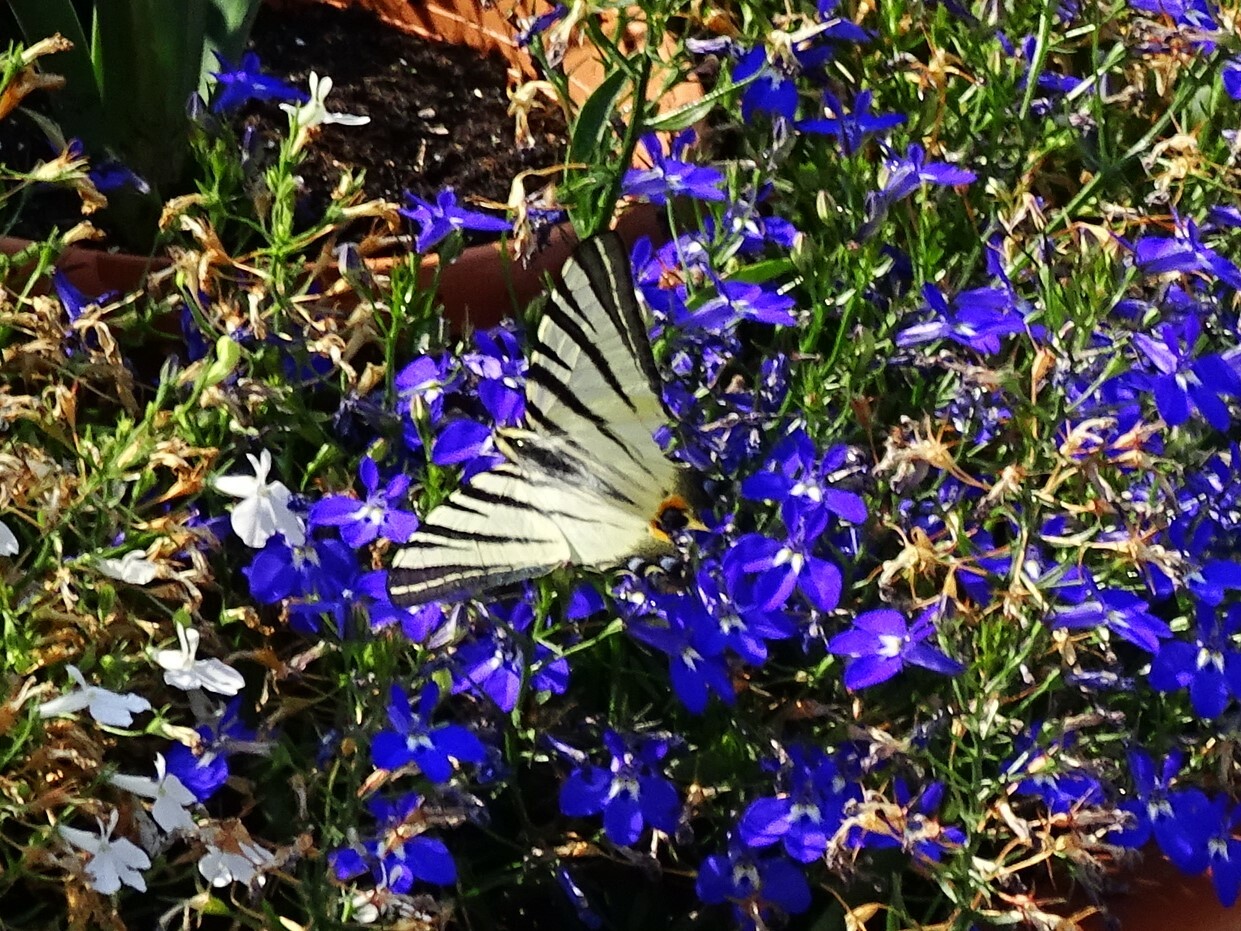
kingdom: Animalia
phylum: Arthropoda
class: Insecta
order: Lepidoptera
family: Papilionidae
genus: Iphiclides
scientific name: Iphiclides podalirius
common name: Scarce swallowtail
